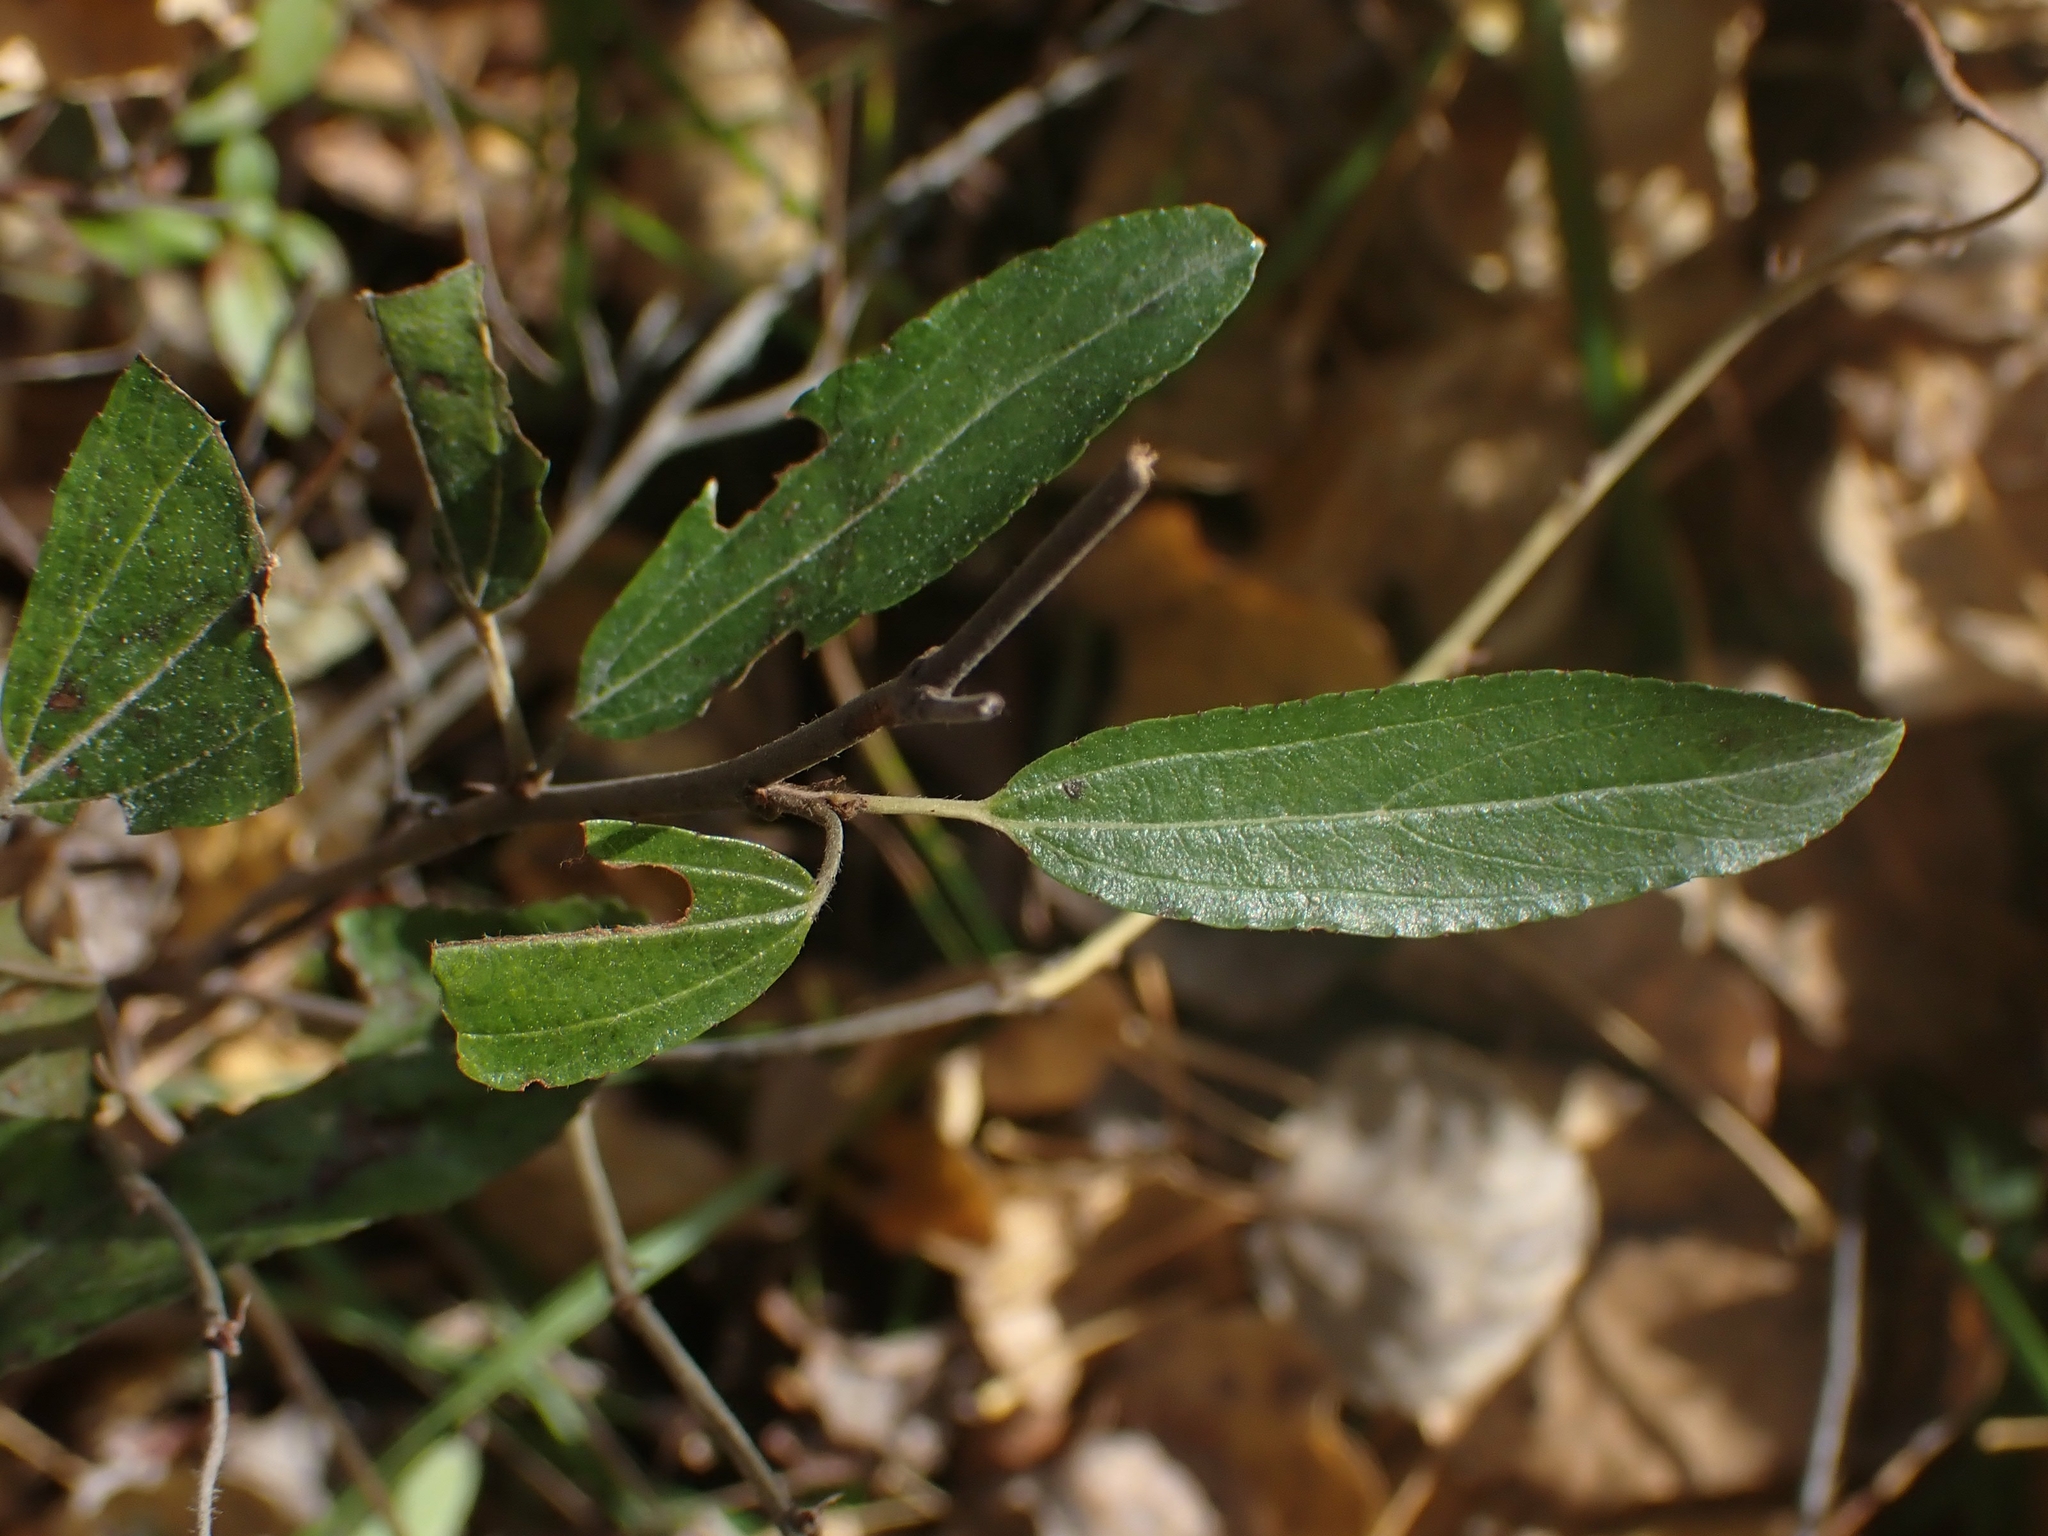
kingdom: Plantae
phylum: Tracheophyta
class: Magnoliopsida
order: Rosales
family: Rhamnaceae
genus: Ceanothus
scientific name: Ceanothus herbaceus
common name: Inland ceanothus
